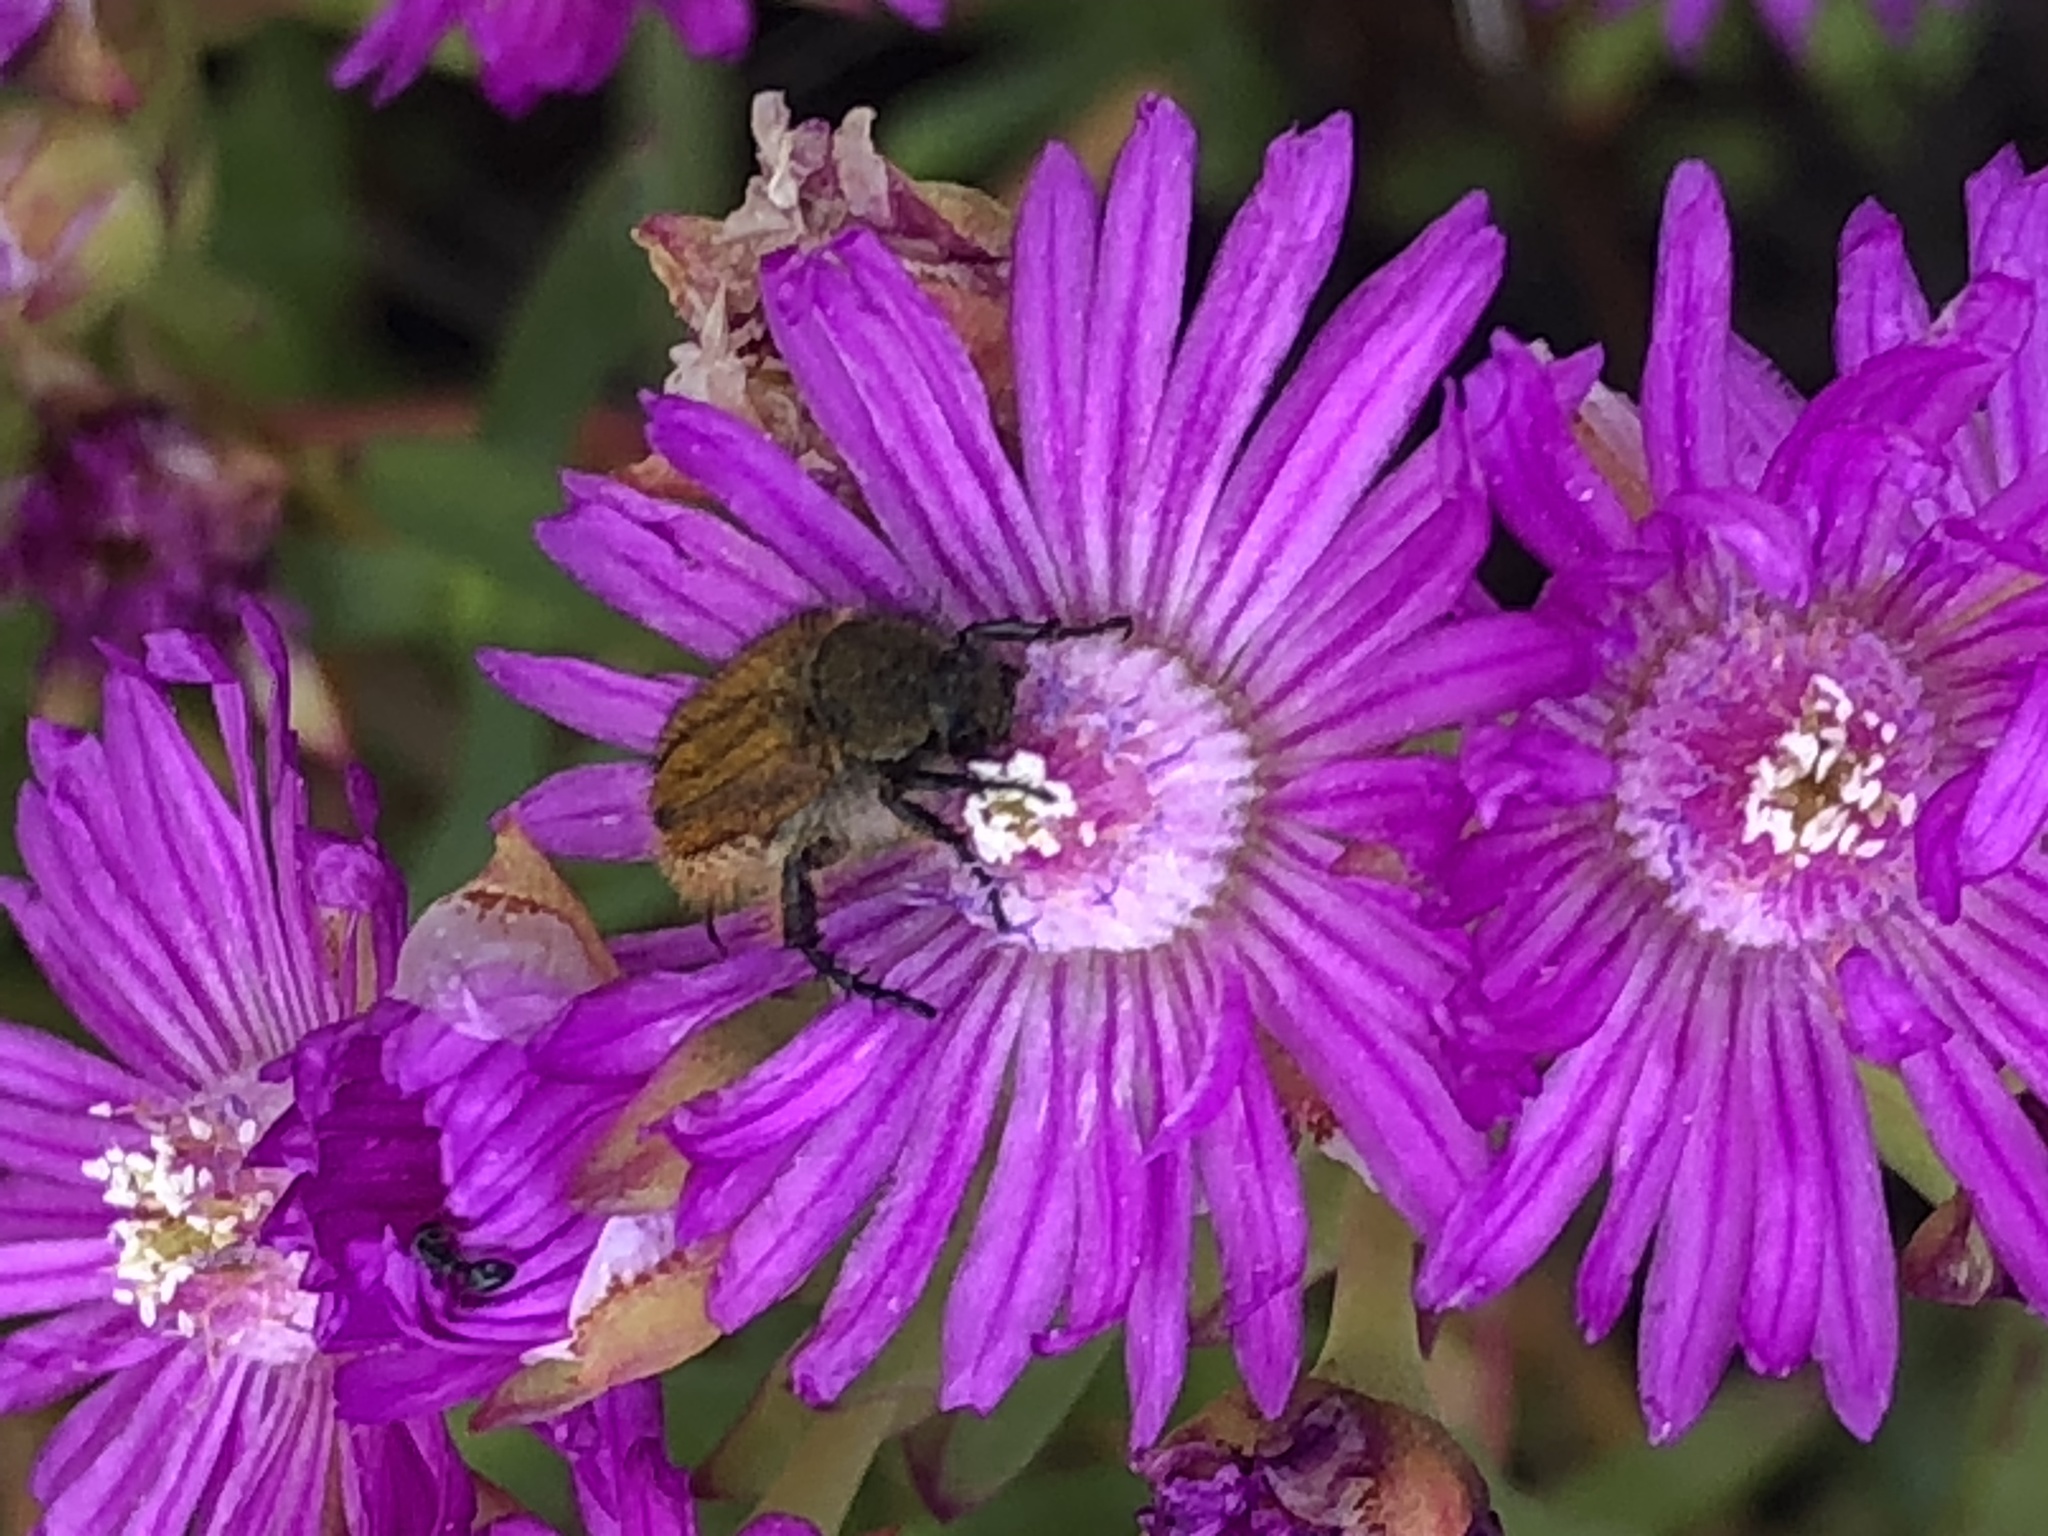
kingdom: Plantae
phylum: Tracheophyta
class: Magnoliopsida
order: Caryophyllales
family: Aizoaceae
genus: Ruschia
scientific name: Ruschia macowanii
